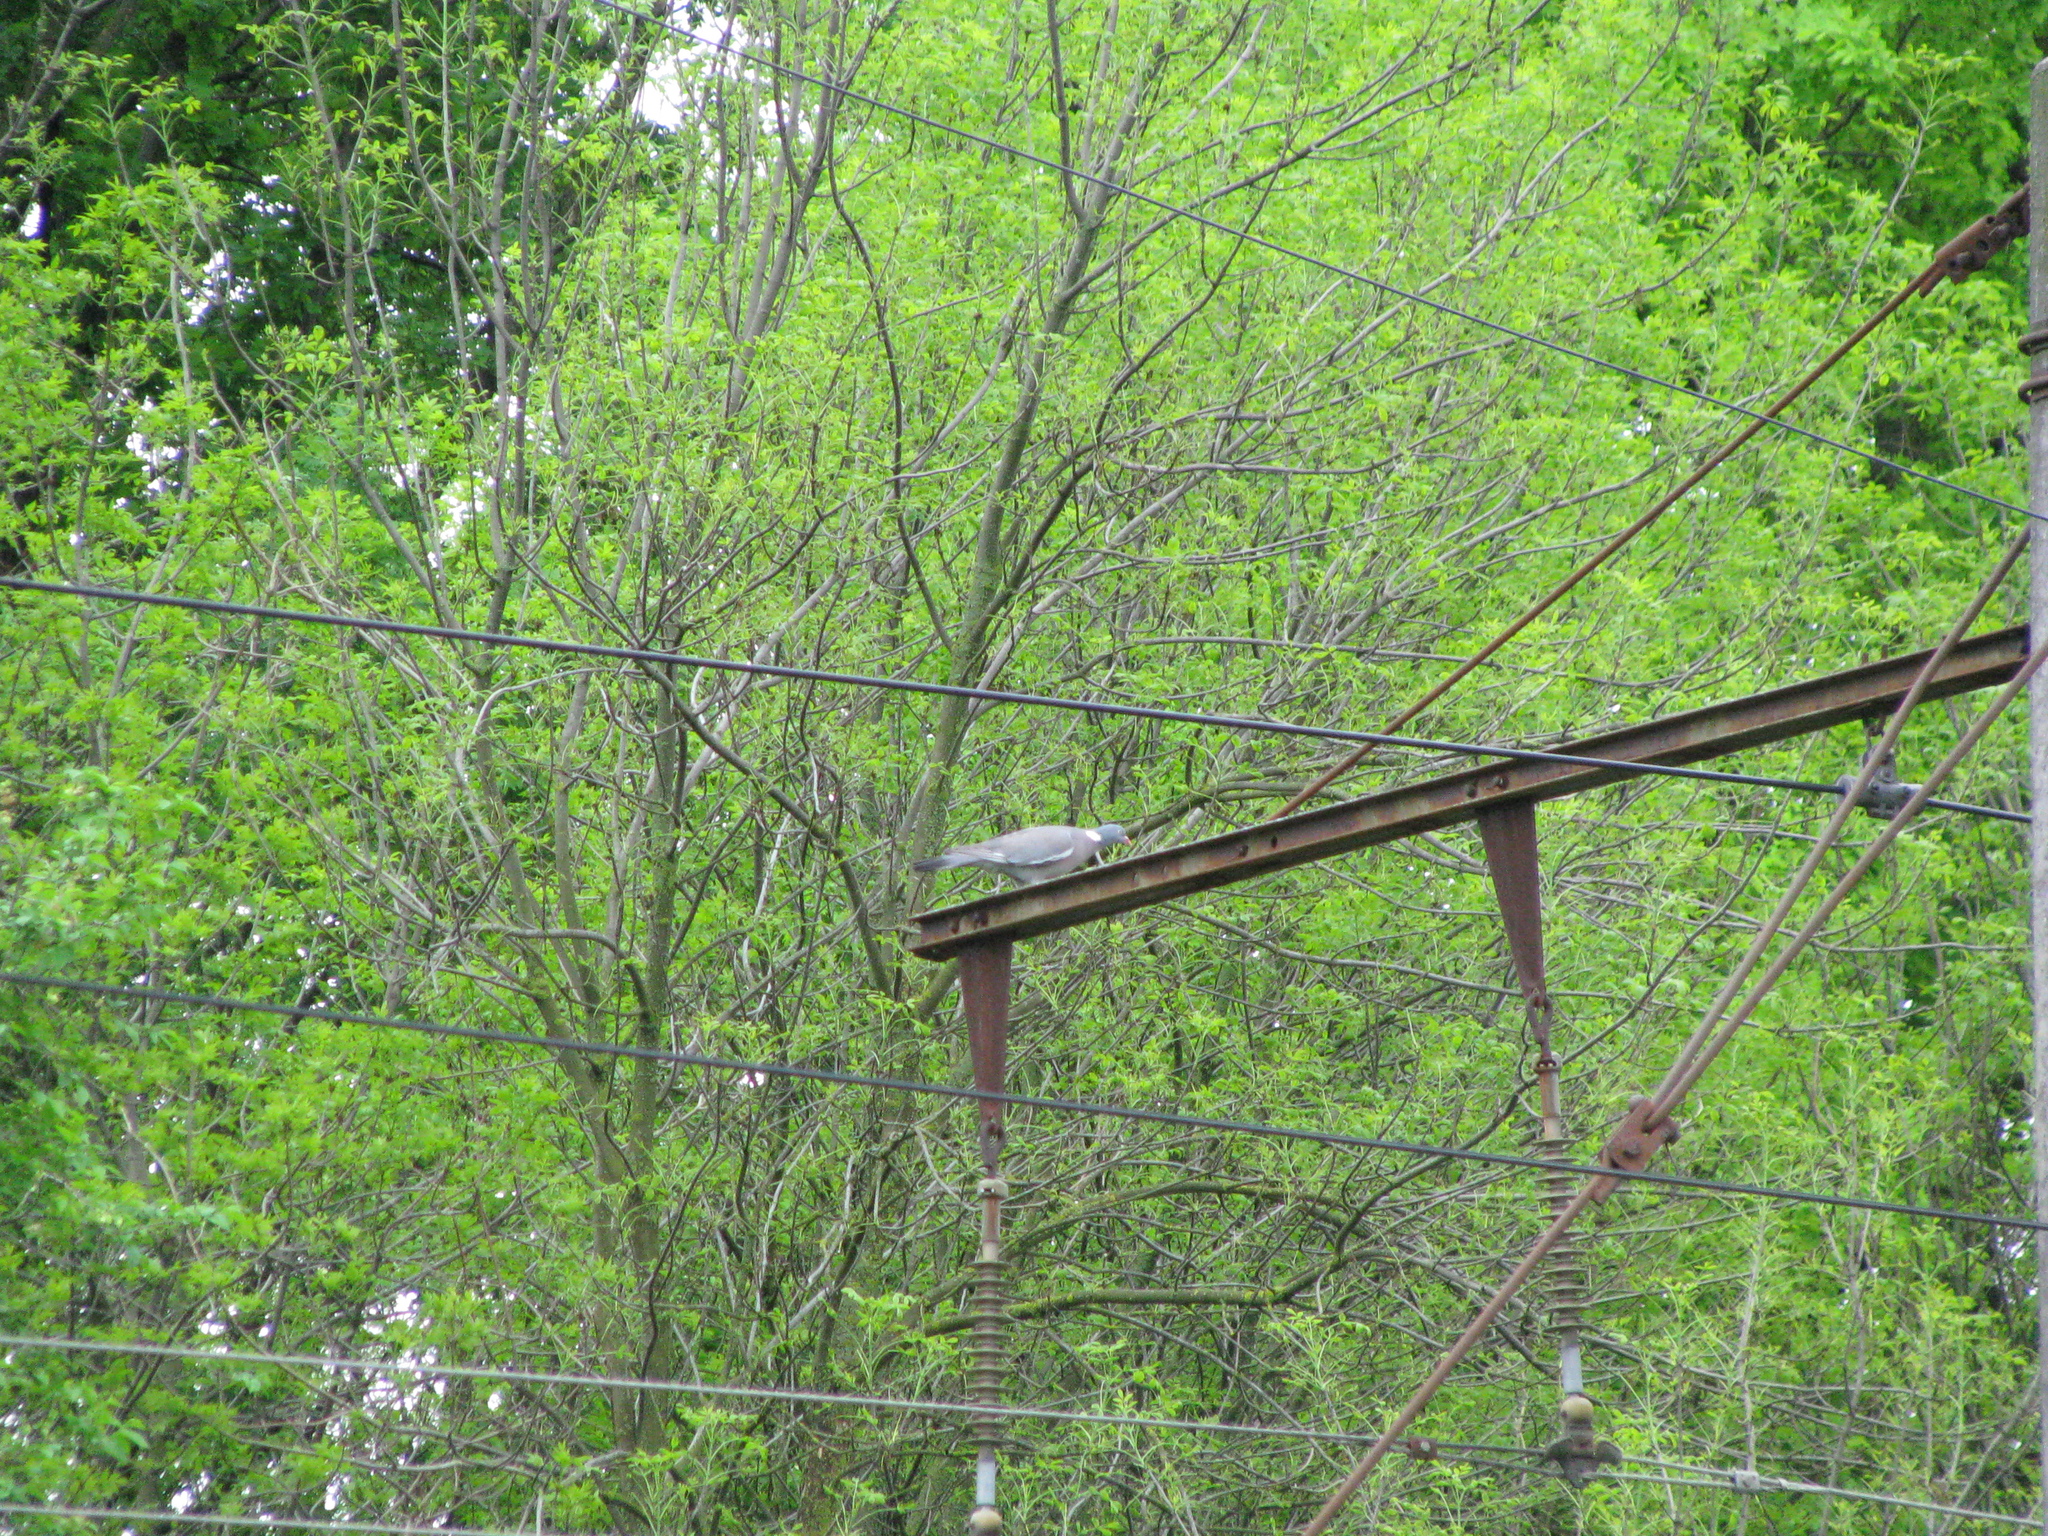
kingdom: Animalia
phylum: Chordata
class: Aves
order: Columbiformes
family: Columbidae
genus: Columba
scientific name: Columba palumbus
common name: Common wood pigeon
